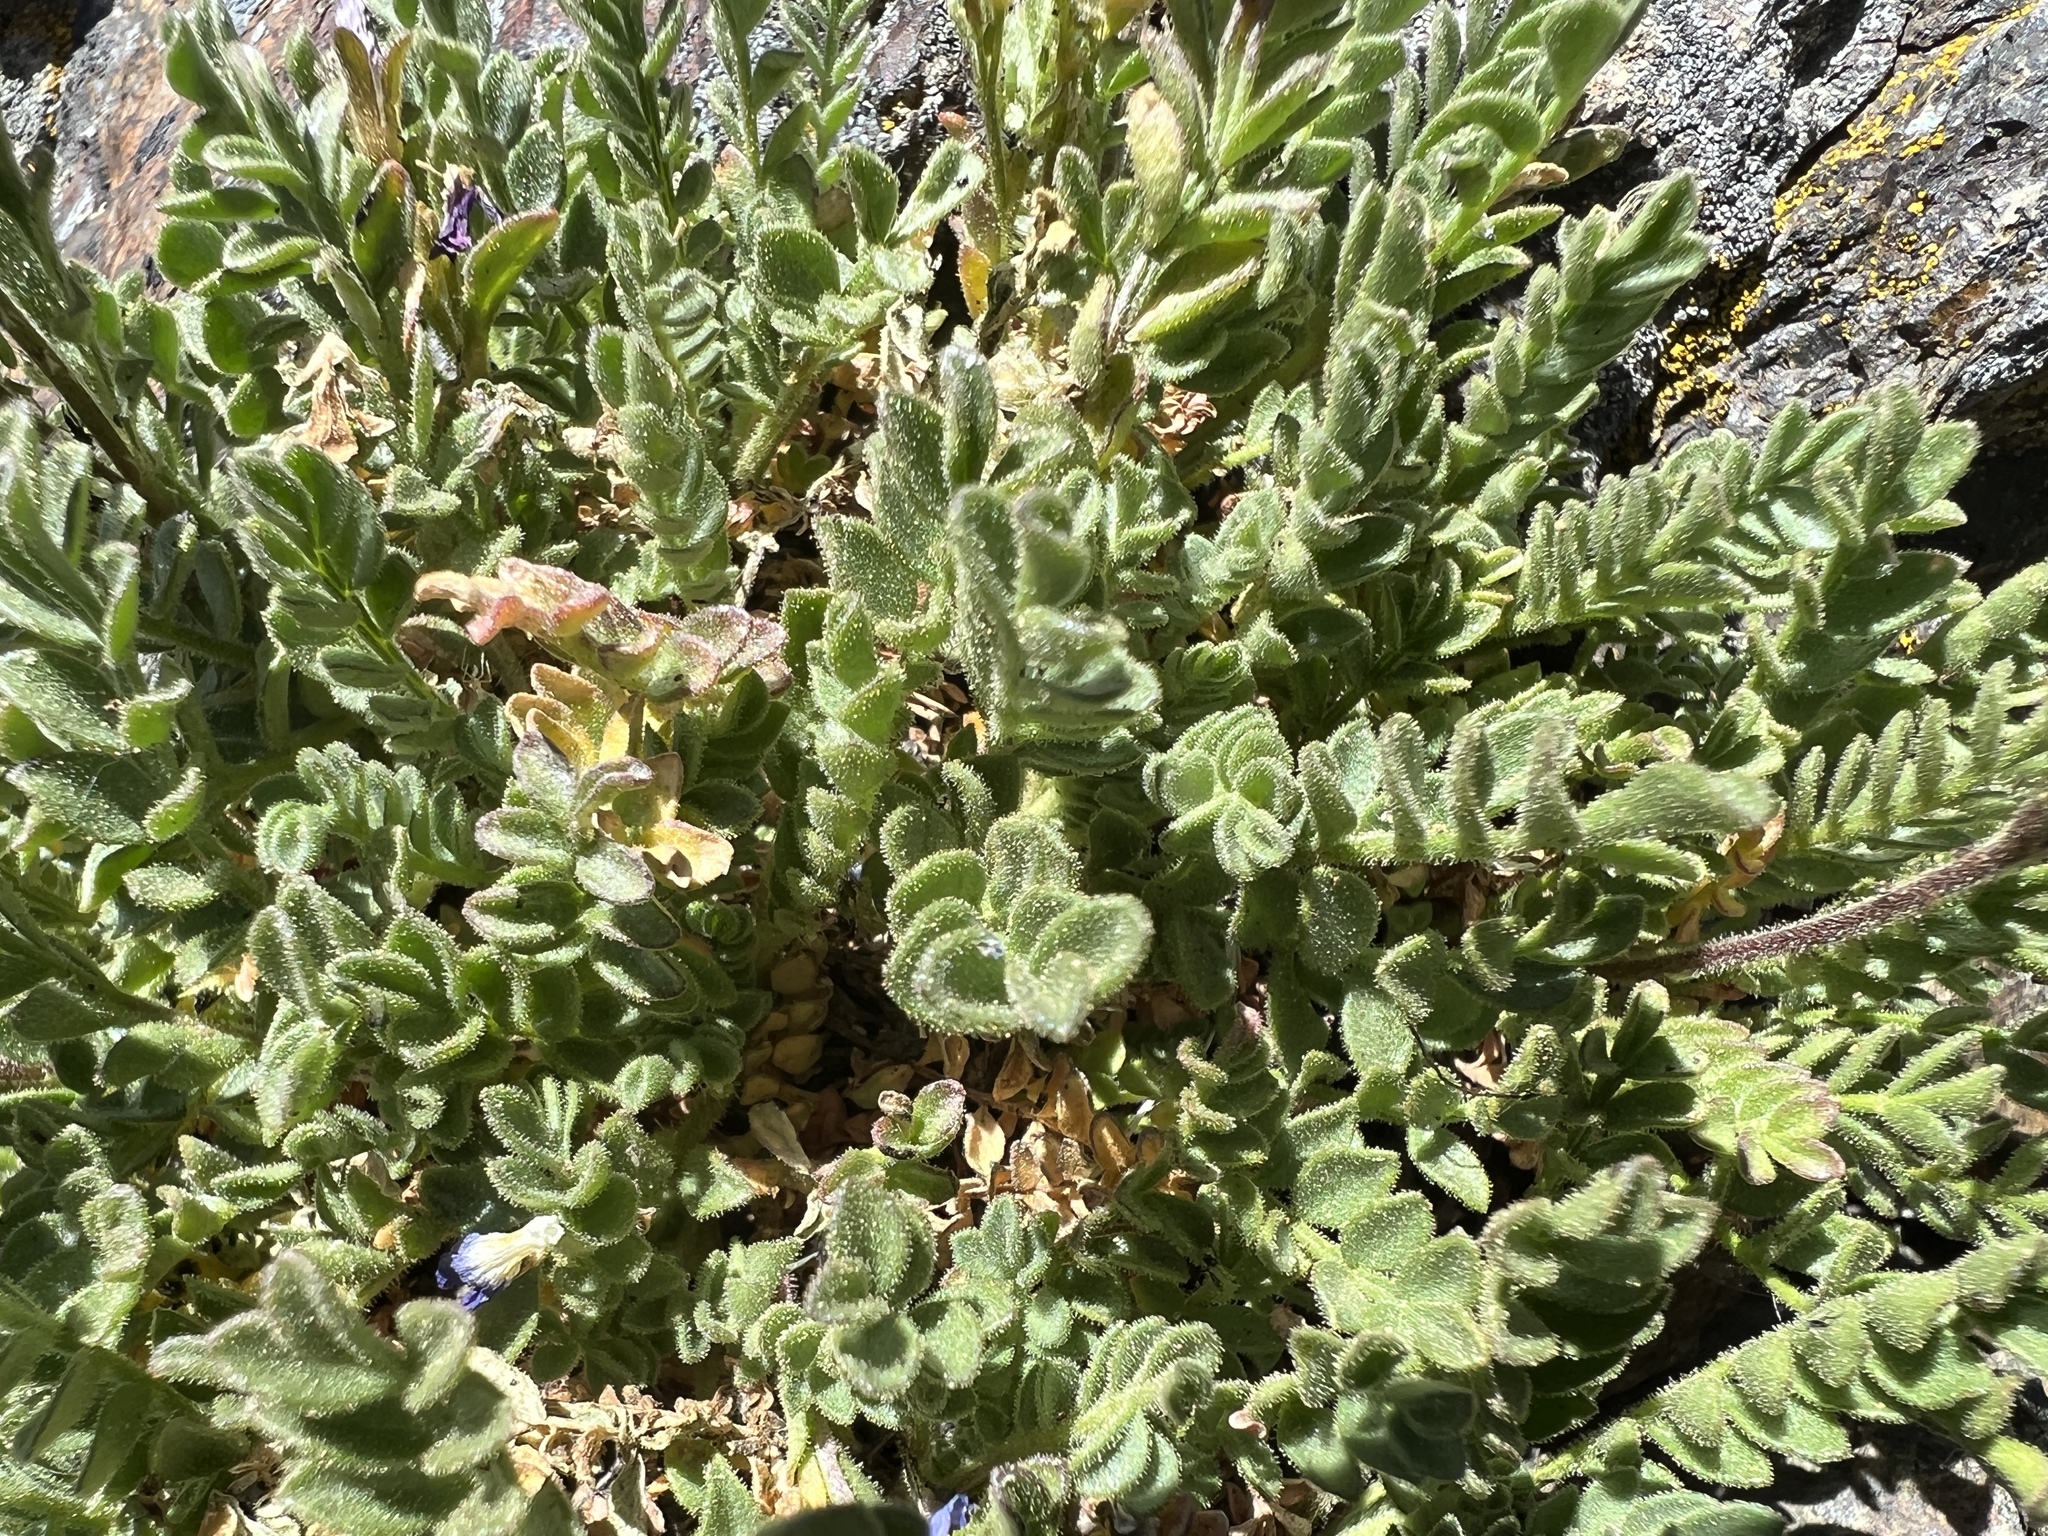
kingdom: Plantae
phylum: Tracheophyta
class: Magnoliopsida
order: Ericales
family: Polemoniaceae
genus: Polemonium
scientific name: Polemonium pulcherrimum
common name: Short jacob's-ladder
